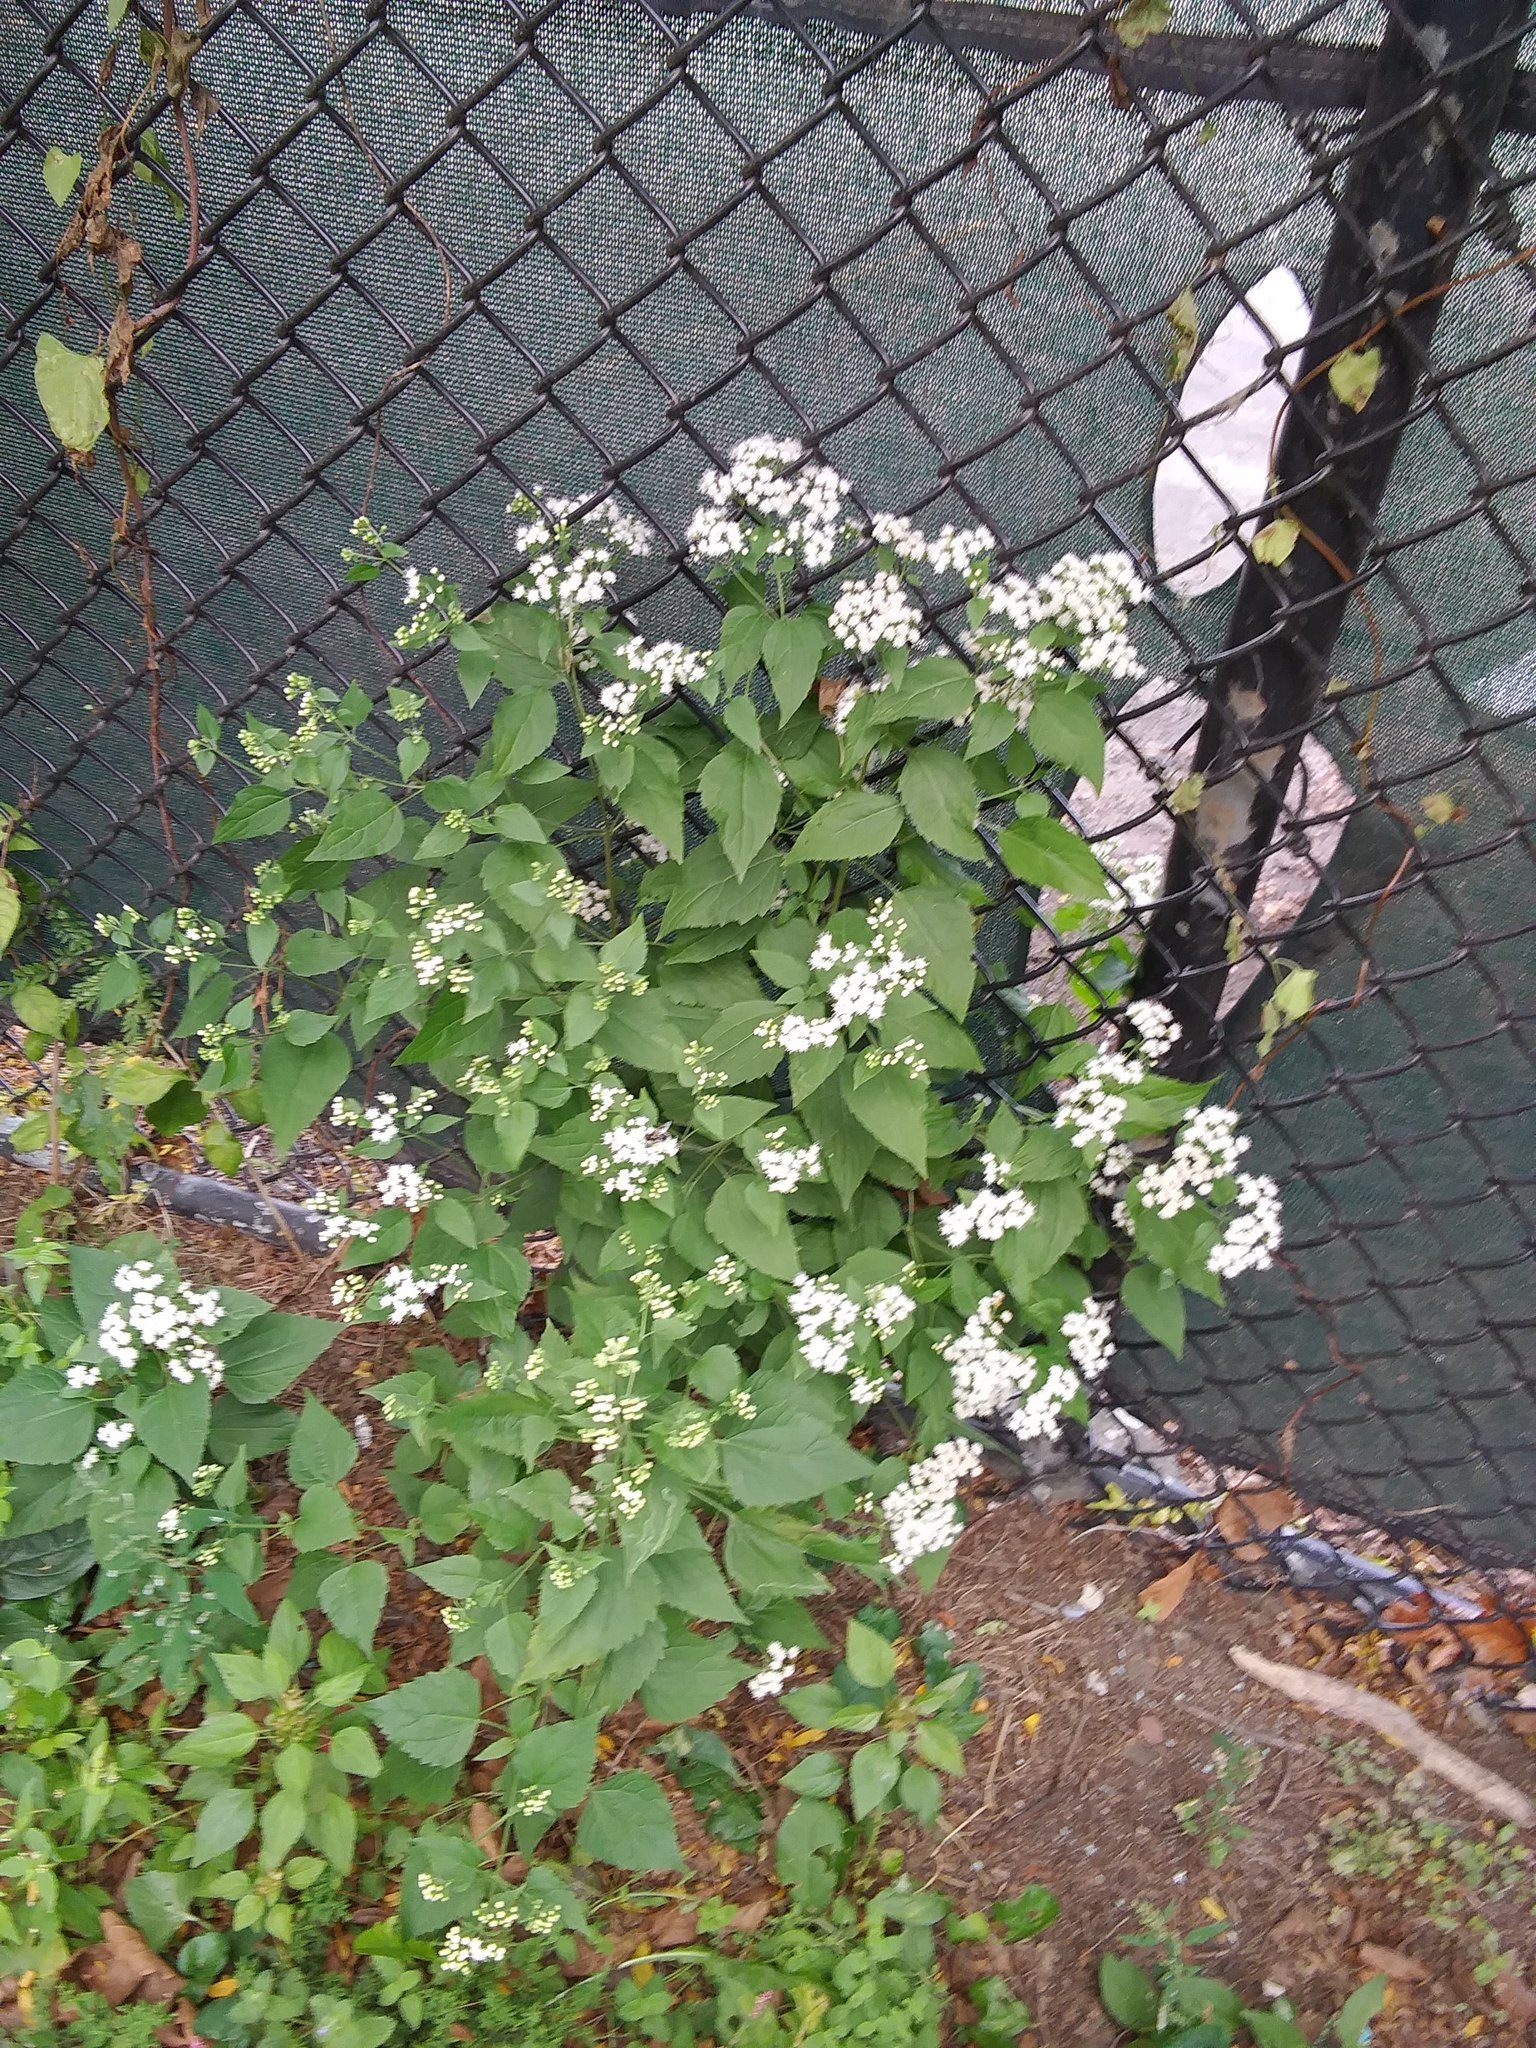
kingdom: Plantae
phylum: Tracheophyta
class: Magnoliopsida
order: Asterales
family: Asteraceae
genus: Ageratina
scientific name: Ageratina altissima
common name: White snakeroot
